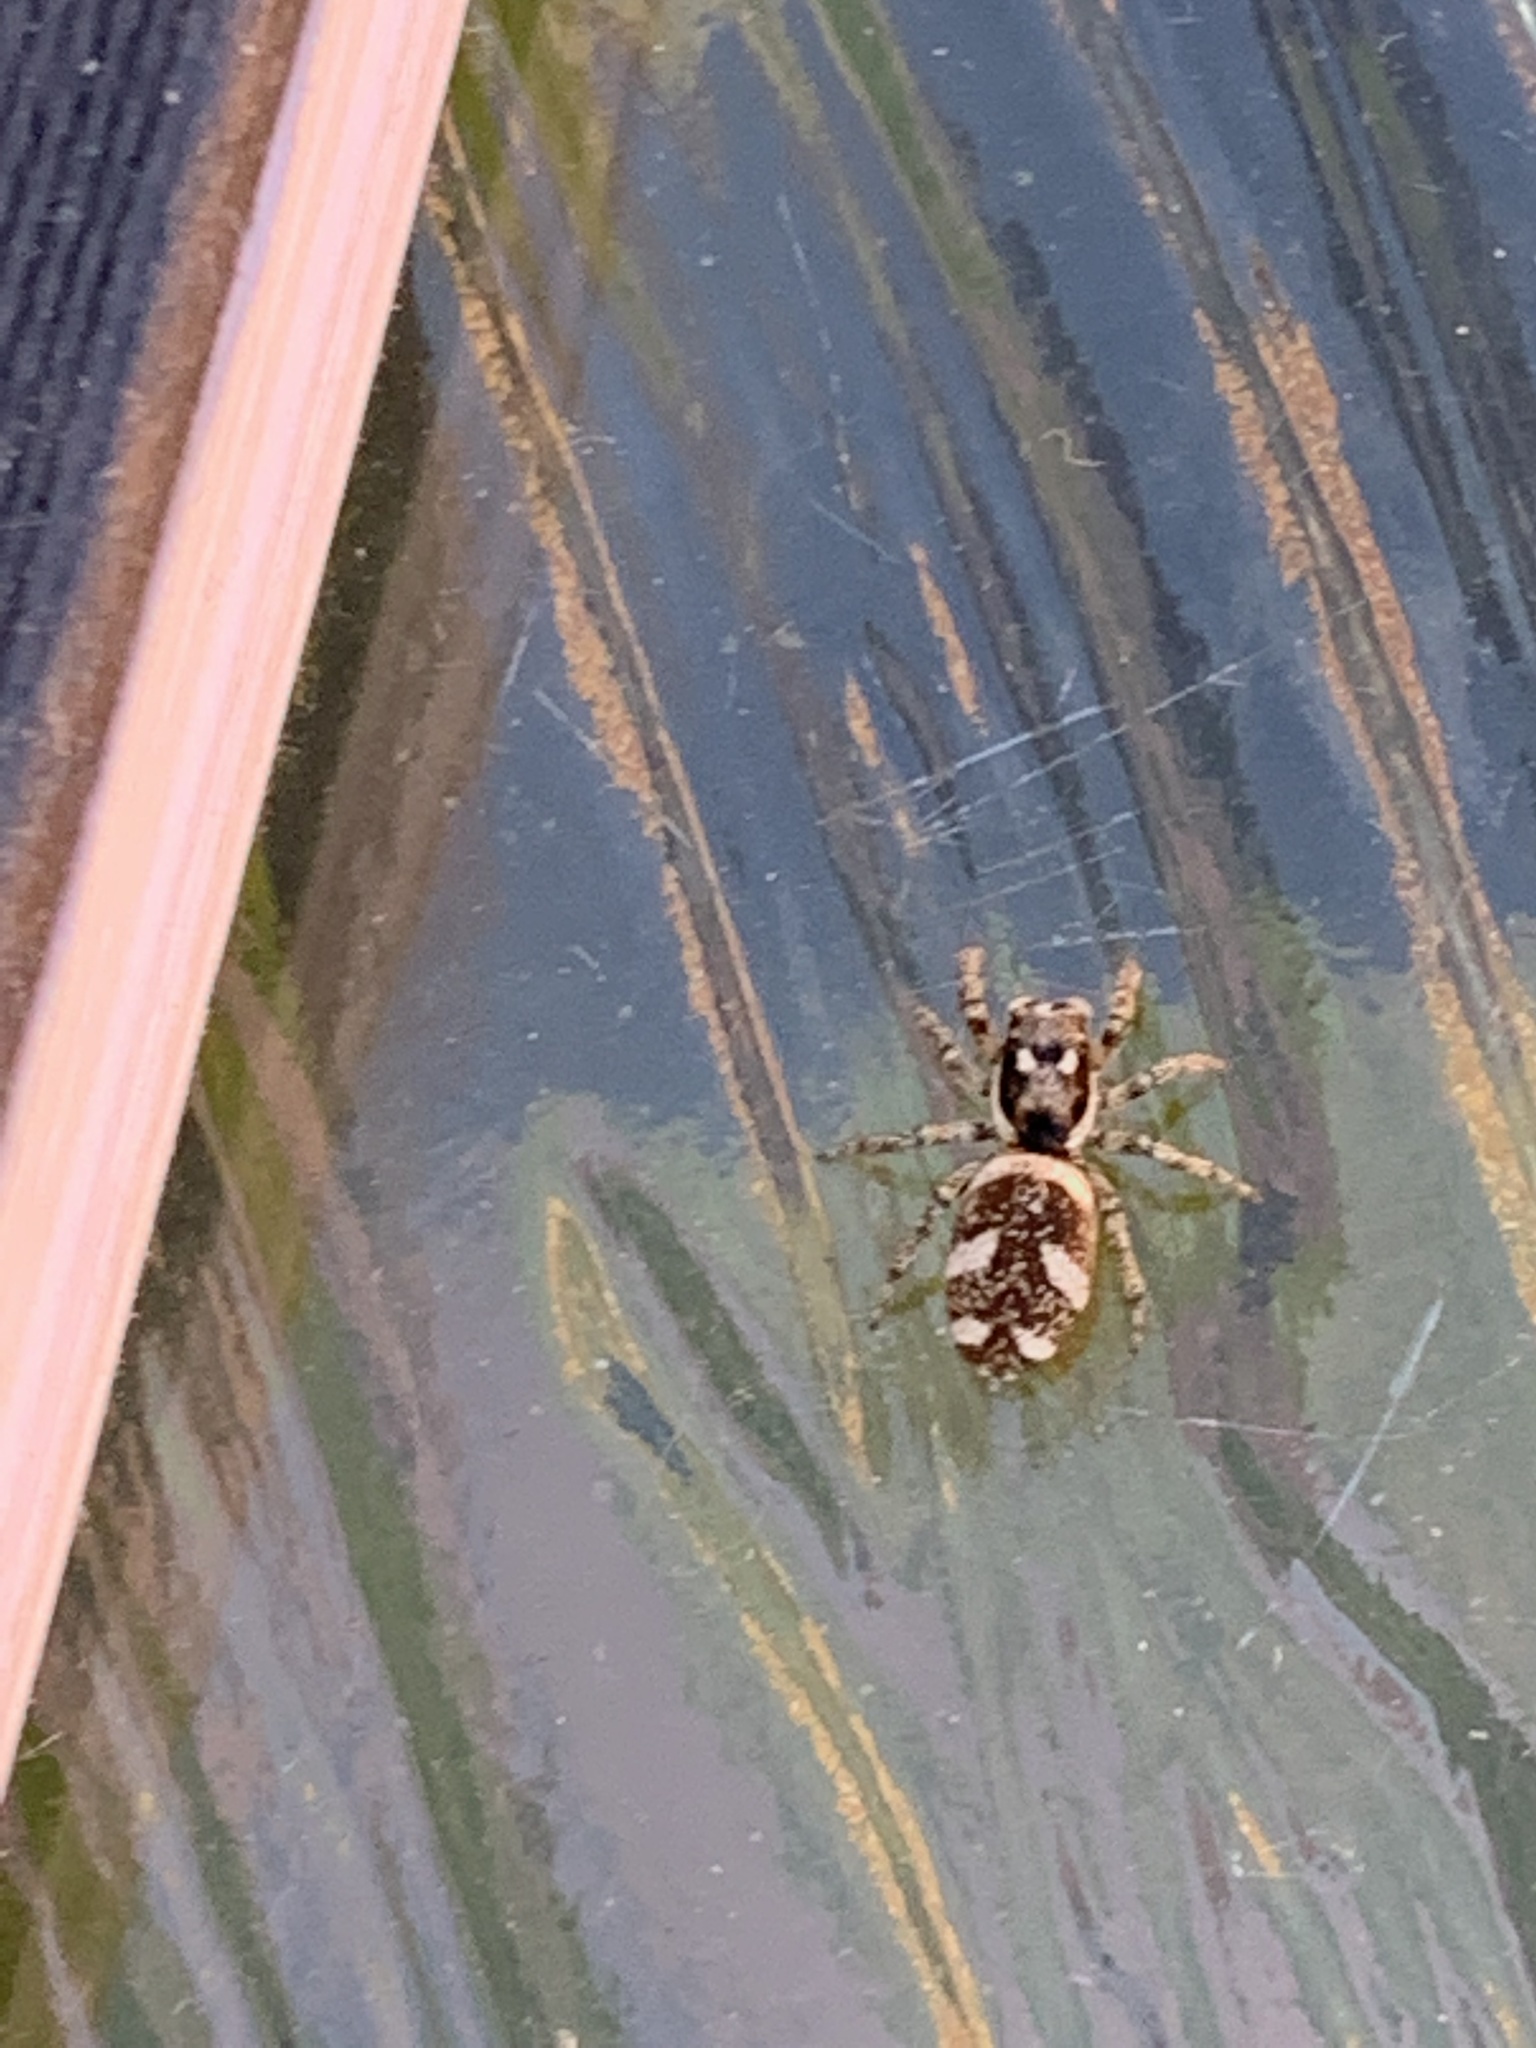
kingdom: Animalia
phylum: Arthropoda
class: Arachnida
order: Araneae
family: Salticidae
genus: Salticus
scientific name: Salticus scenicus
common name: Zebra jumper
